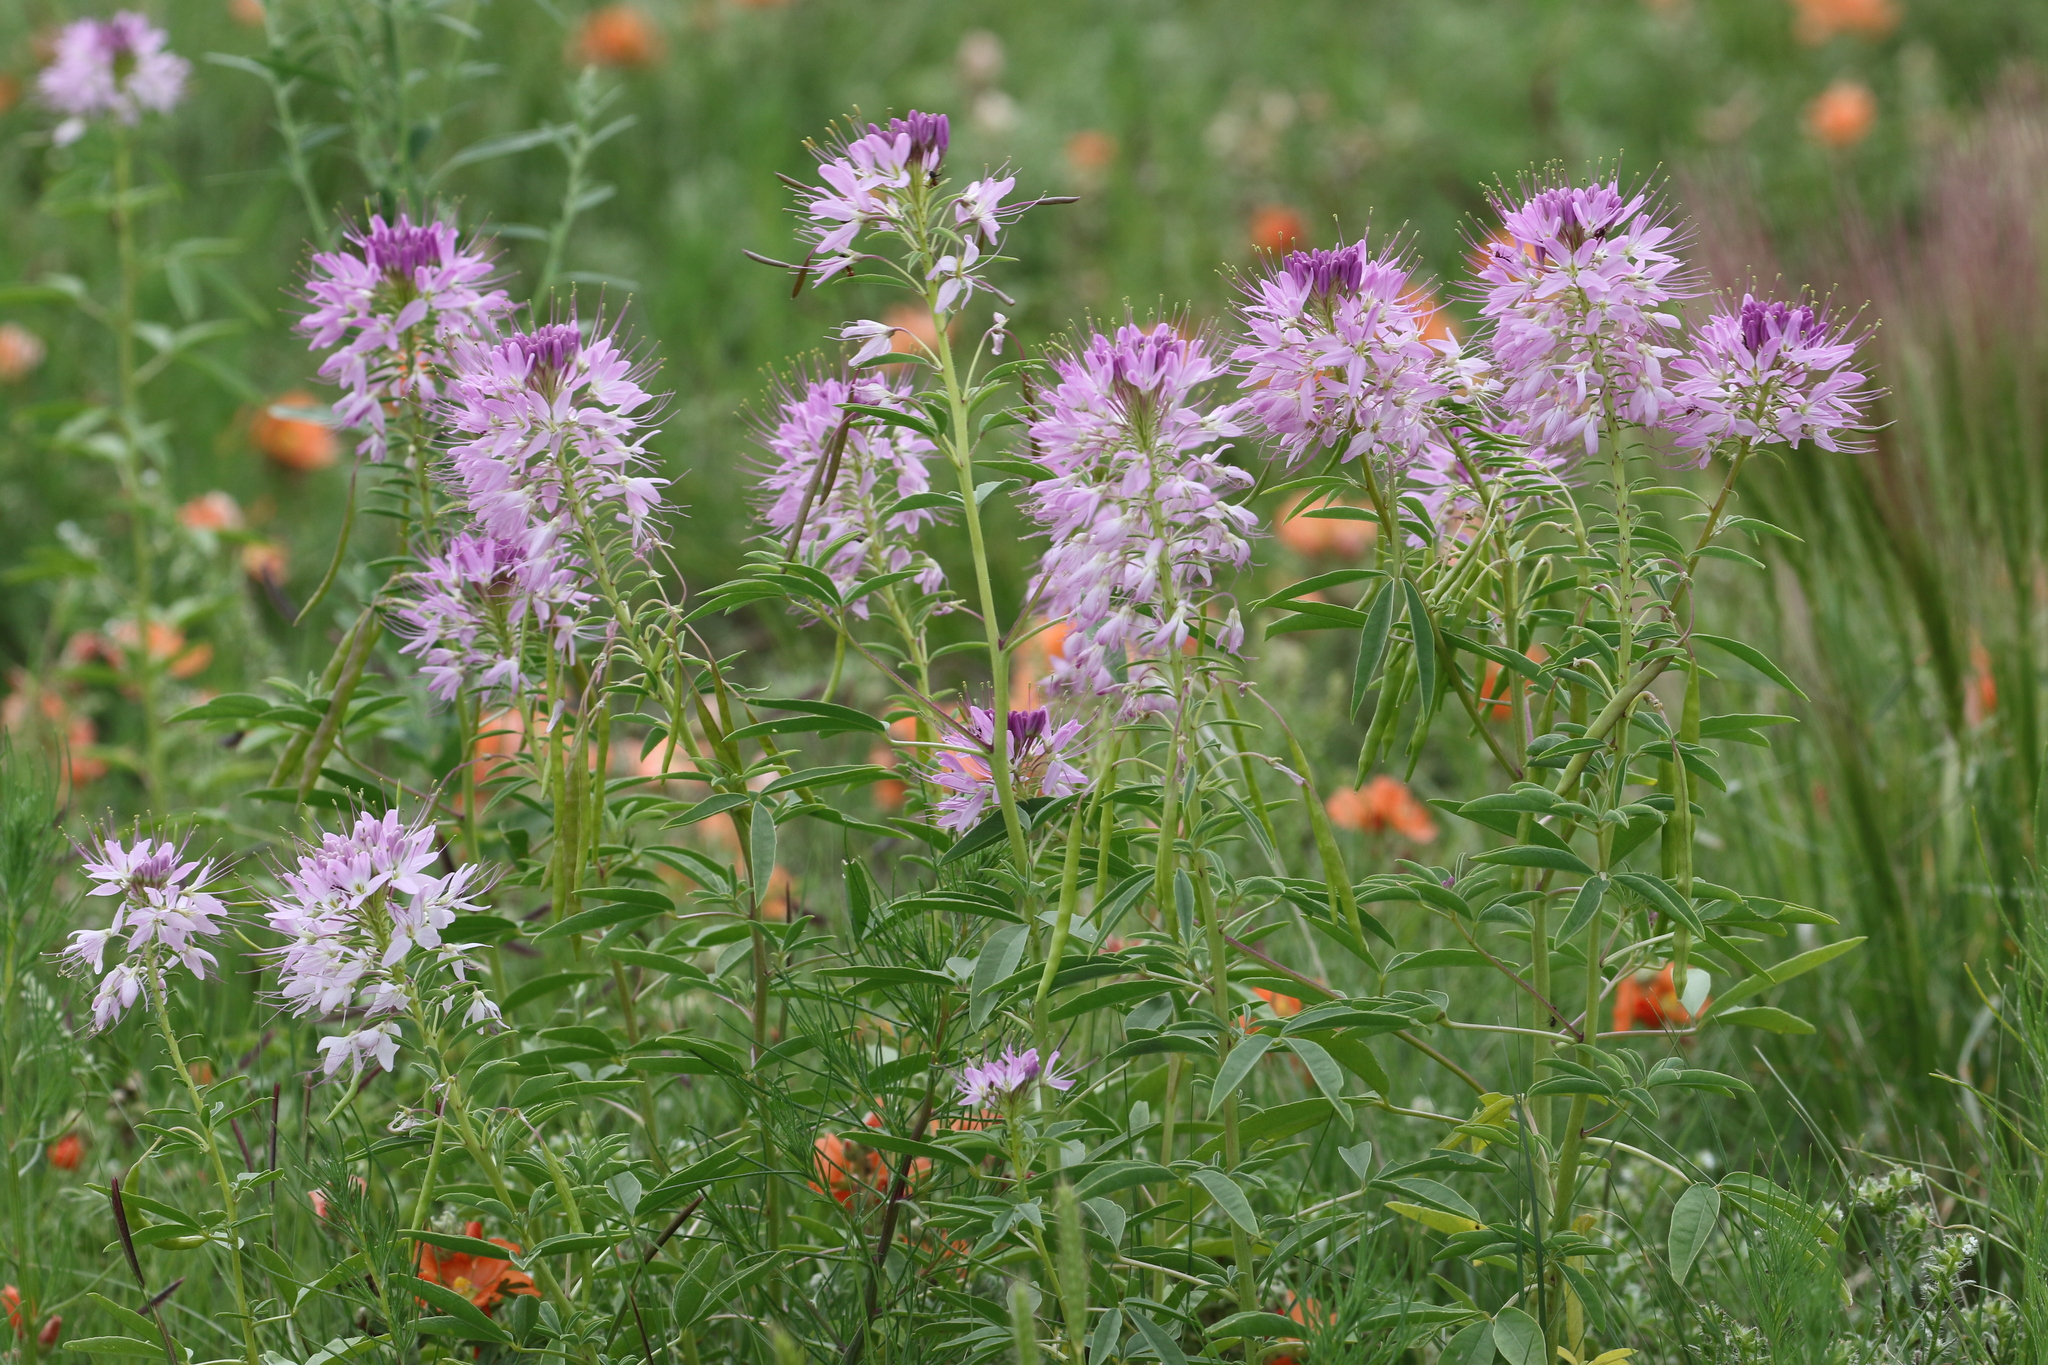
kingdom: Plantae
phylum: Tracheophyta
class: Magnoliopsida
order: Brassicales
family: Cleomaceae
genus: Cleomella
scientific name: Cleomella serrulata
